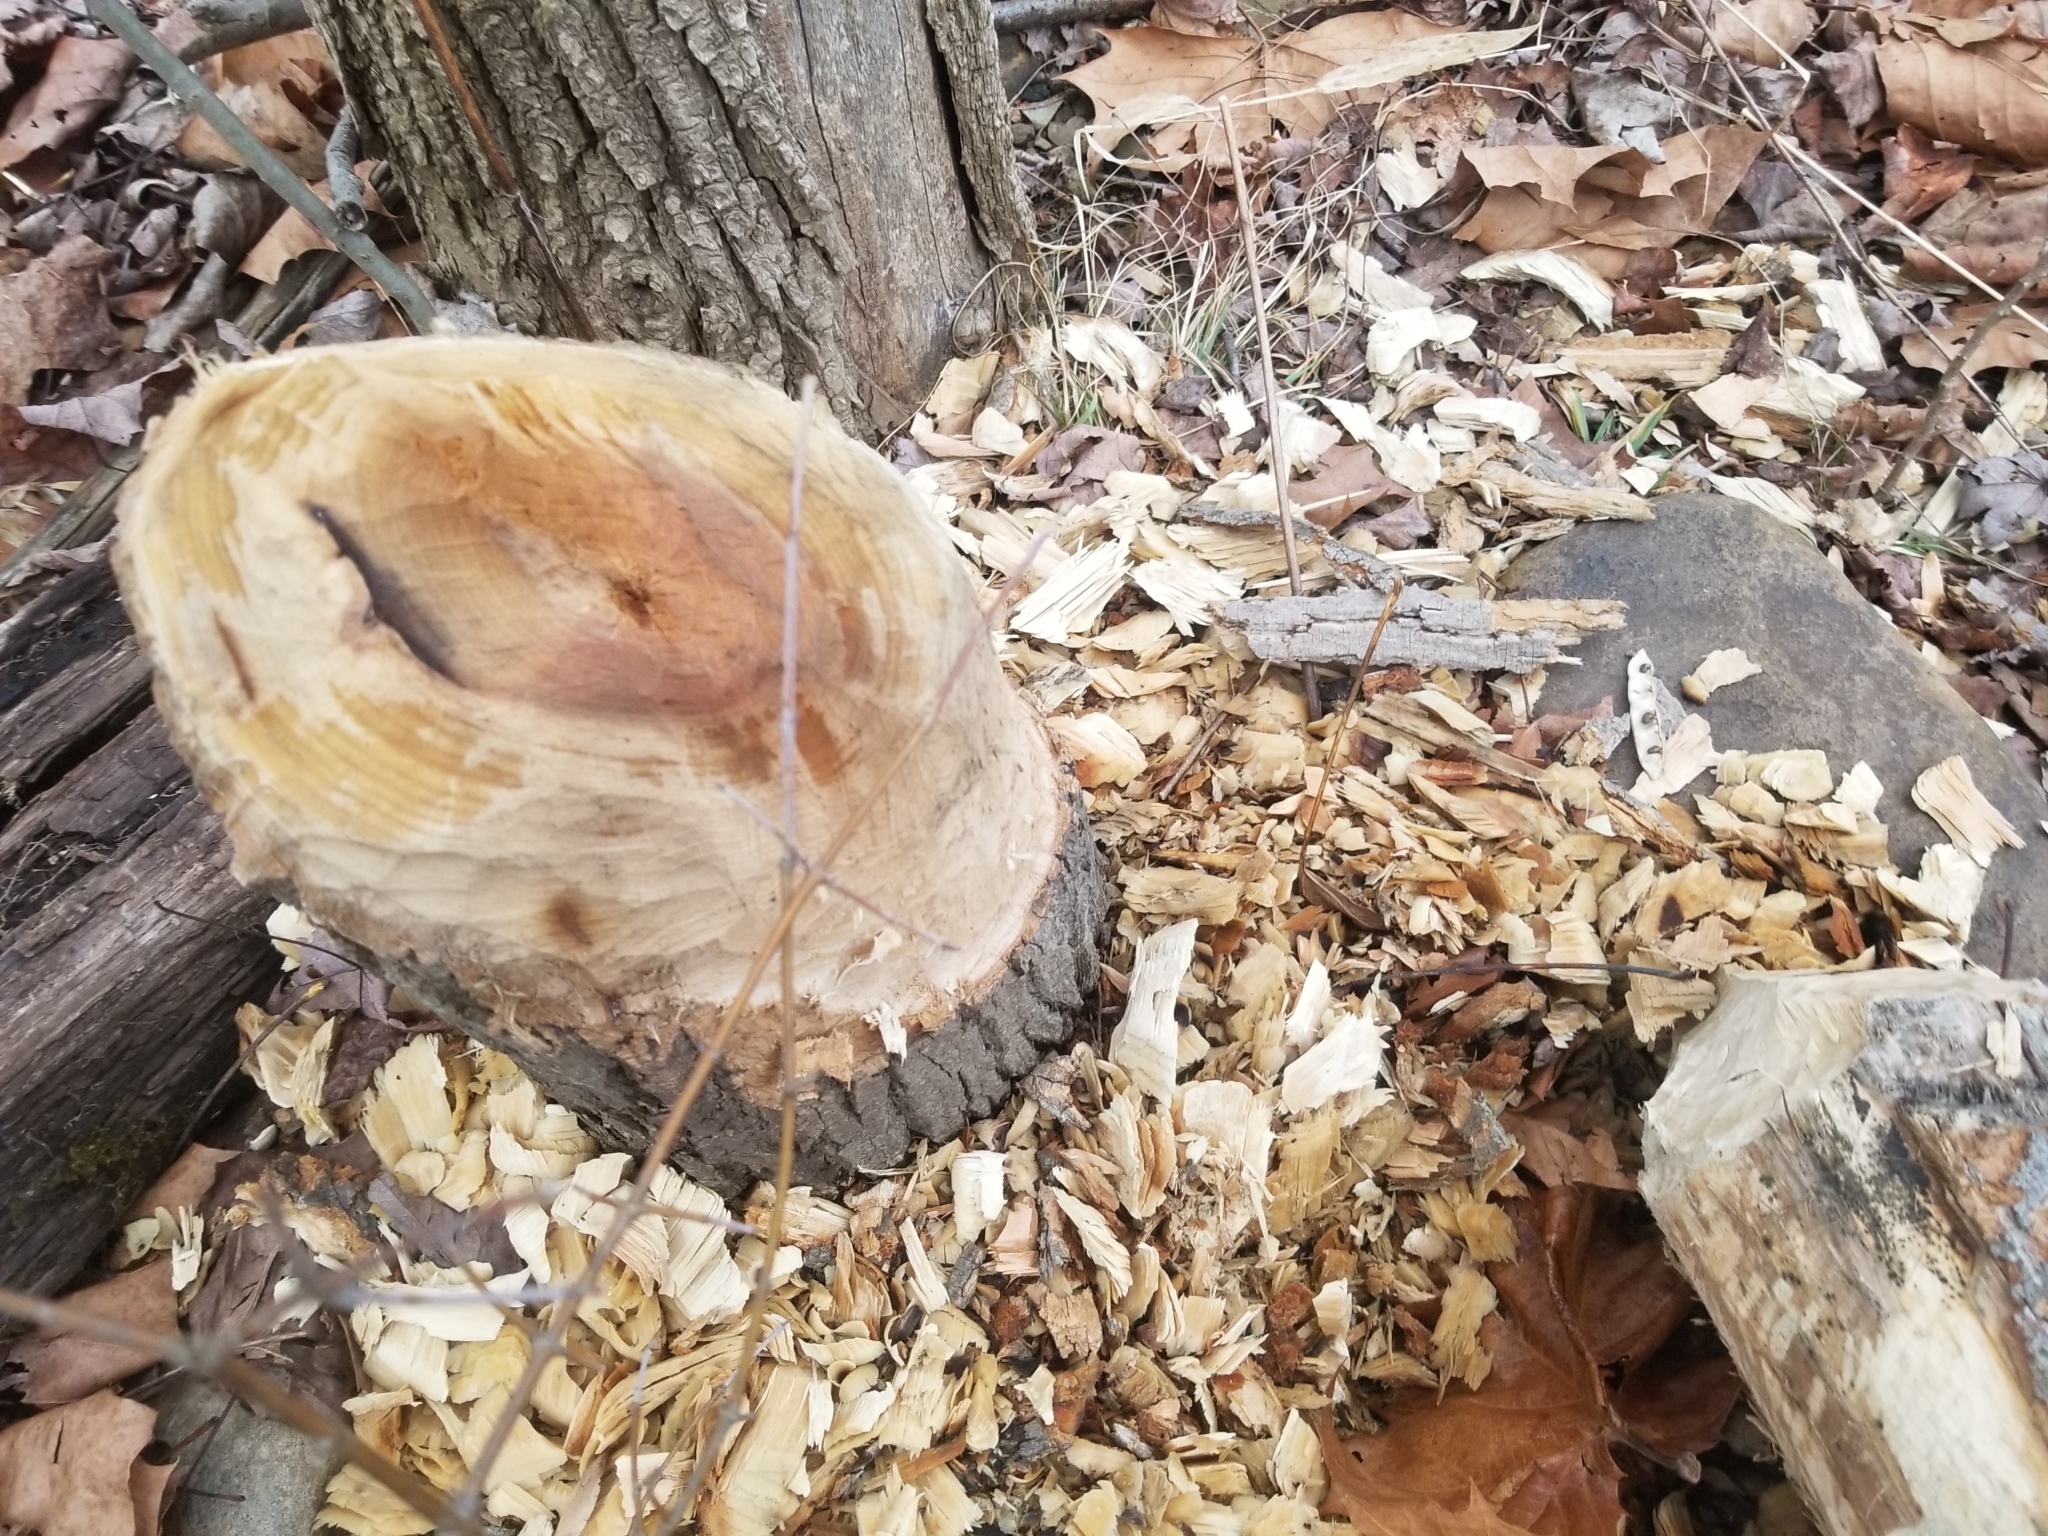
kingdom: Animalia
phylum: Chordata
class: Mammalia
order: Rodentia
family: Castoridae
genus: Castor
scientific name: Castor canadensis
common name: American beaver
